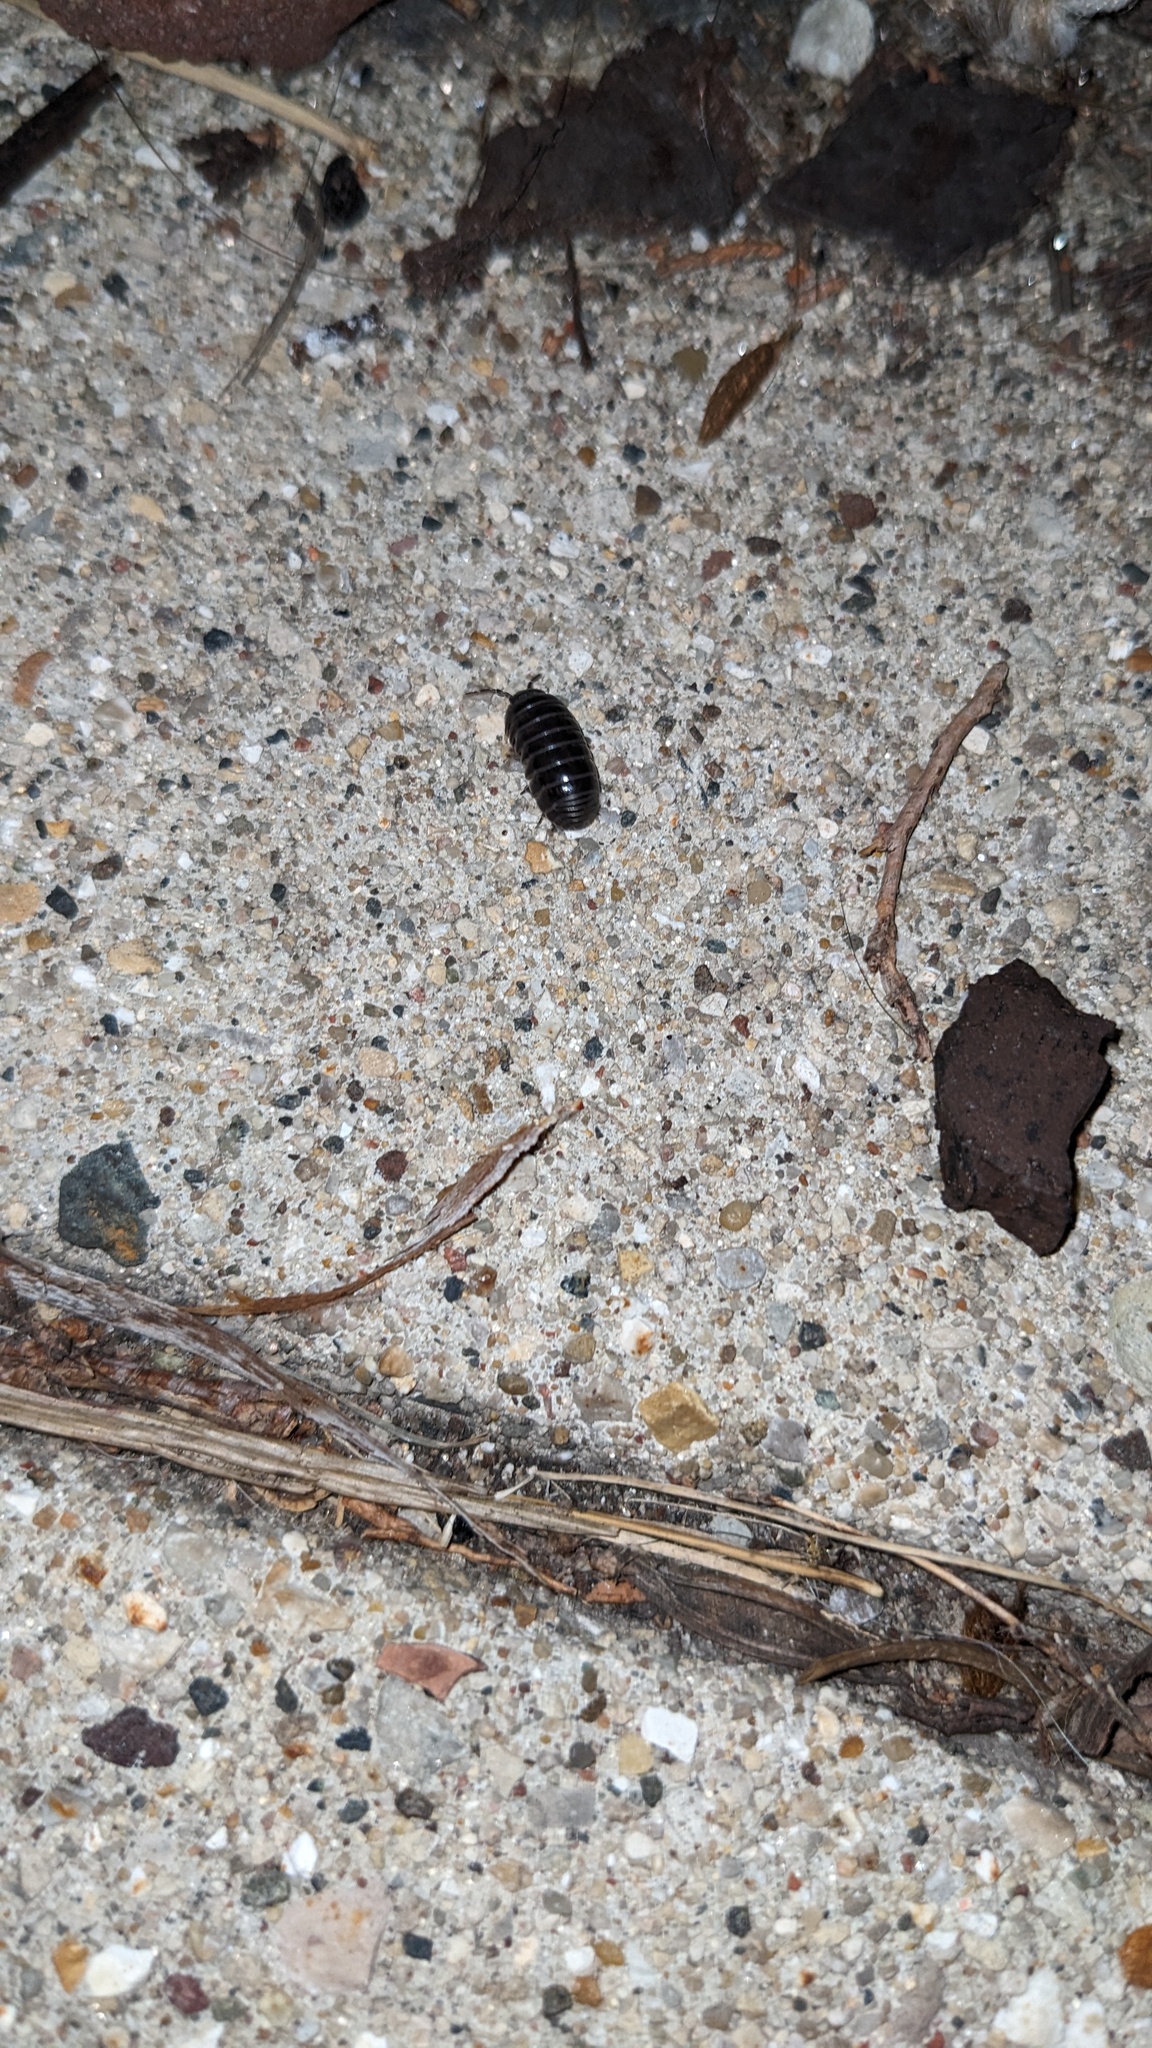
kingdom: Animalia
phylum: Arthropoda
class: Malacostraca
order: Isopoda
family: Armadillidiidae
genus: Armadillidium
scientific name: Armadillidium vulgare
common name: Common pill woodlouse
